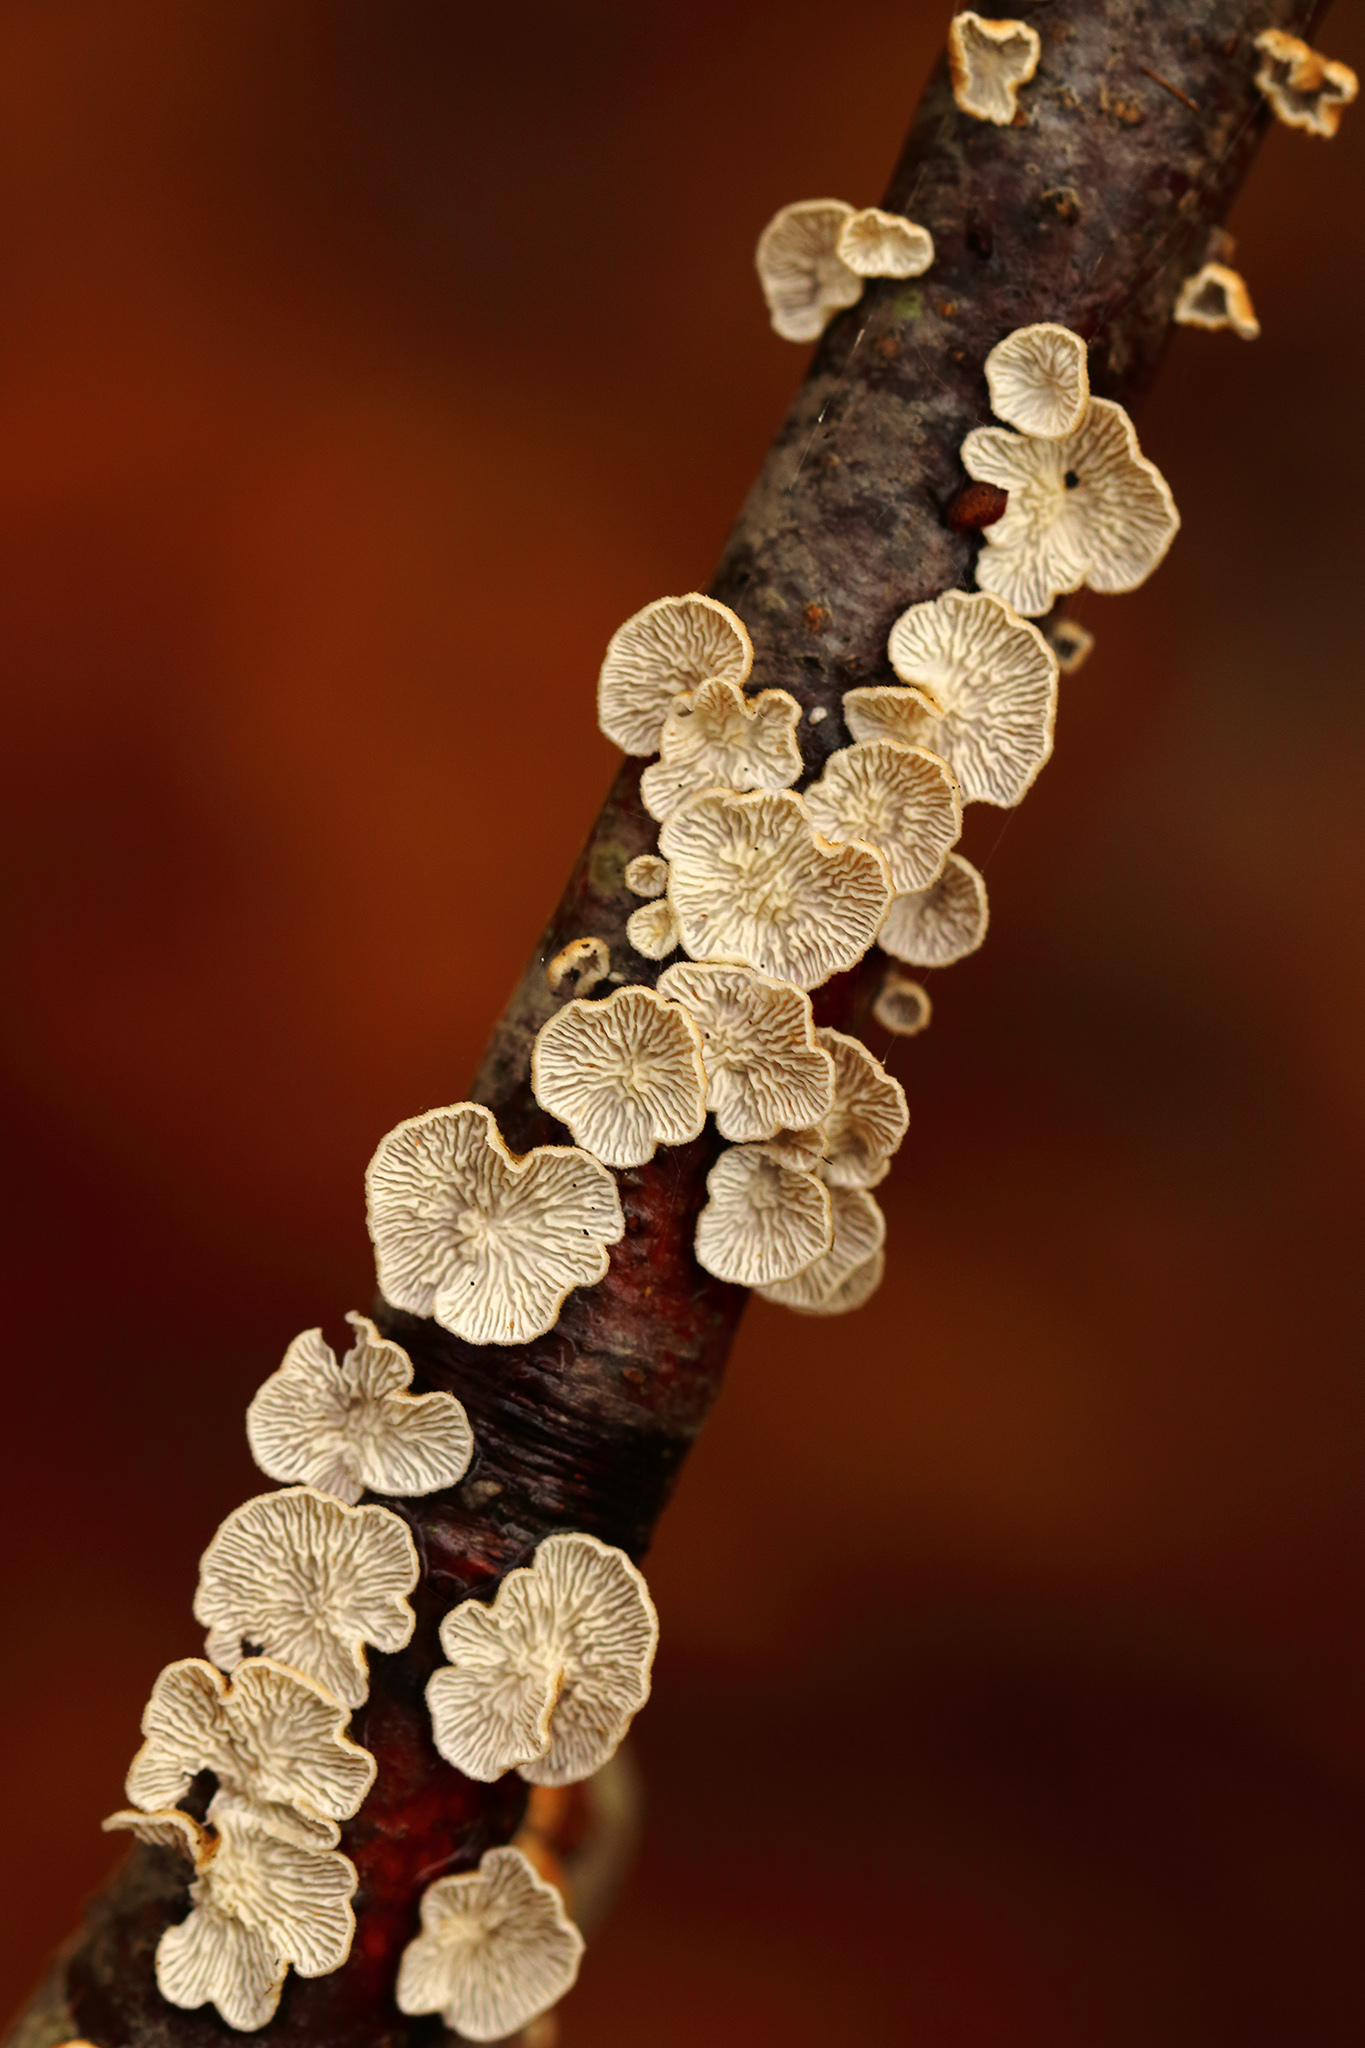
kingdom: Fungi
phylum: Basidiomycota
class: Agaricomycetes
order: Amylocorticiales
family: Amylocorticiaceae
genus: Plicaturopsis
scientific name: Plicaturopsis crispa
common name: Crimped gill
